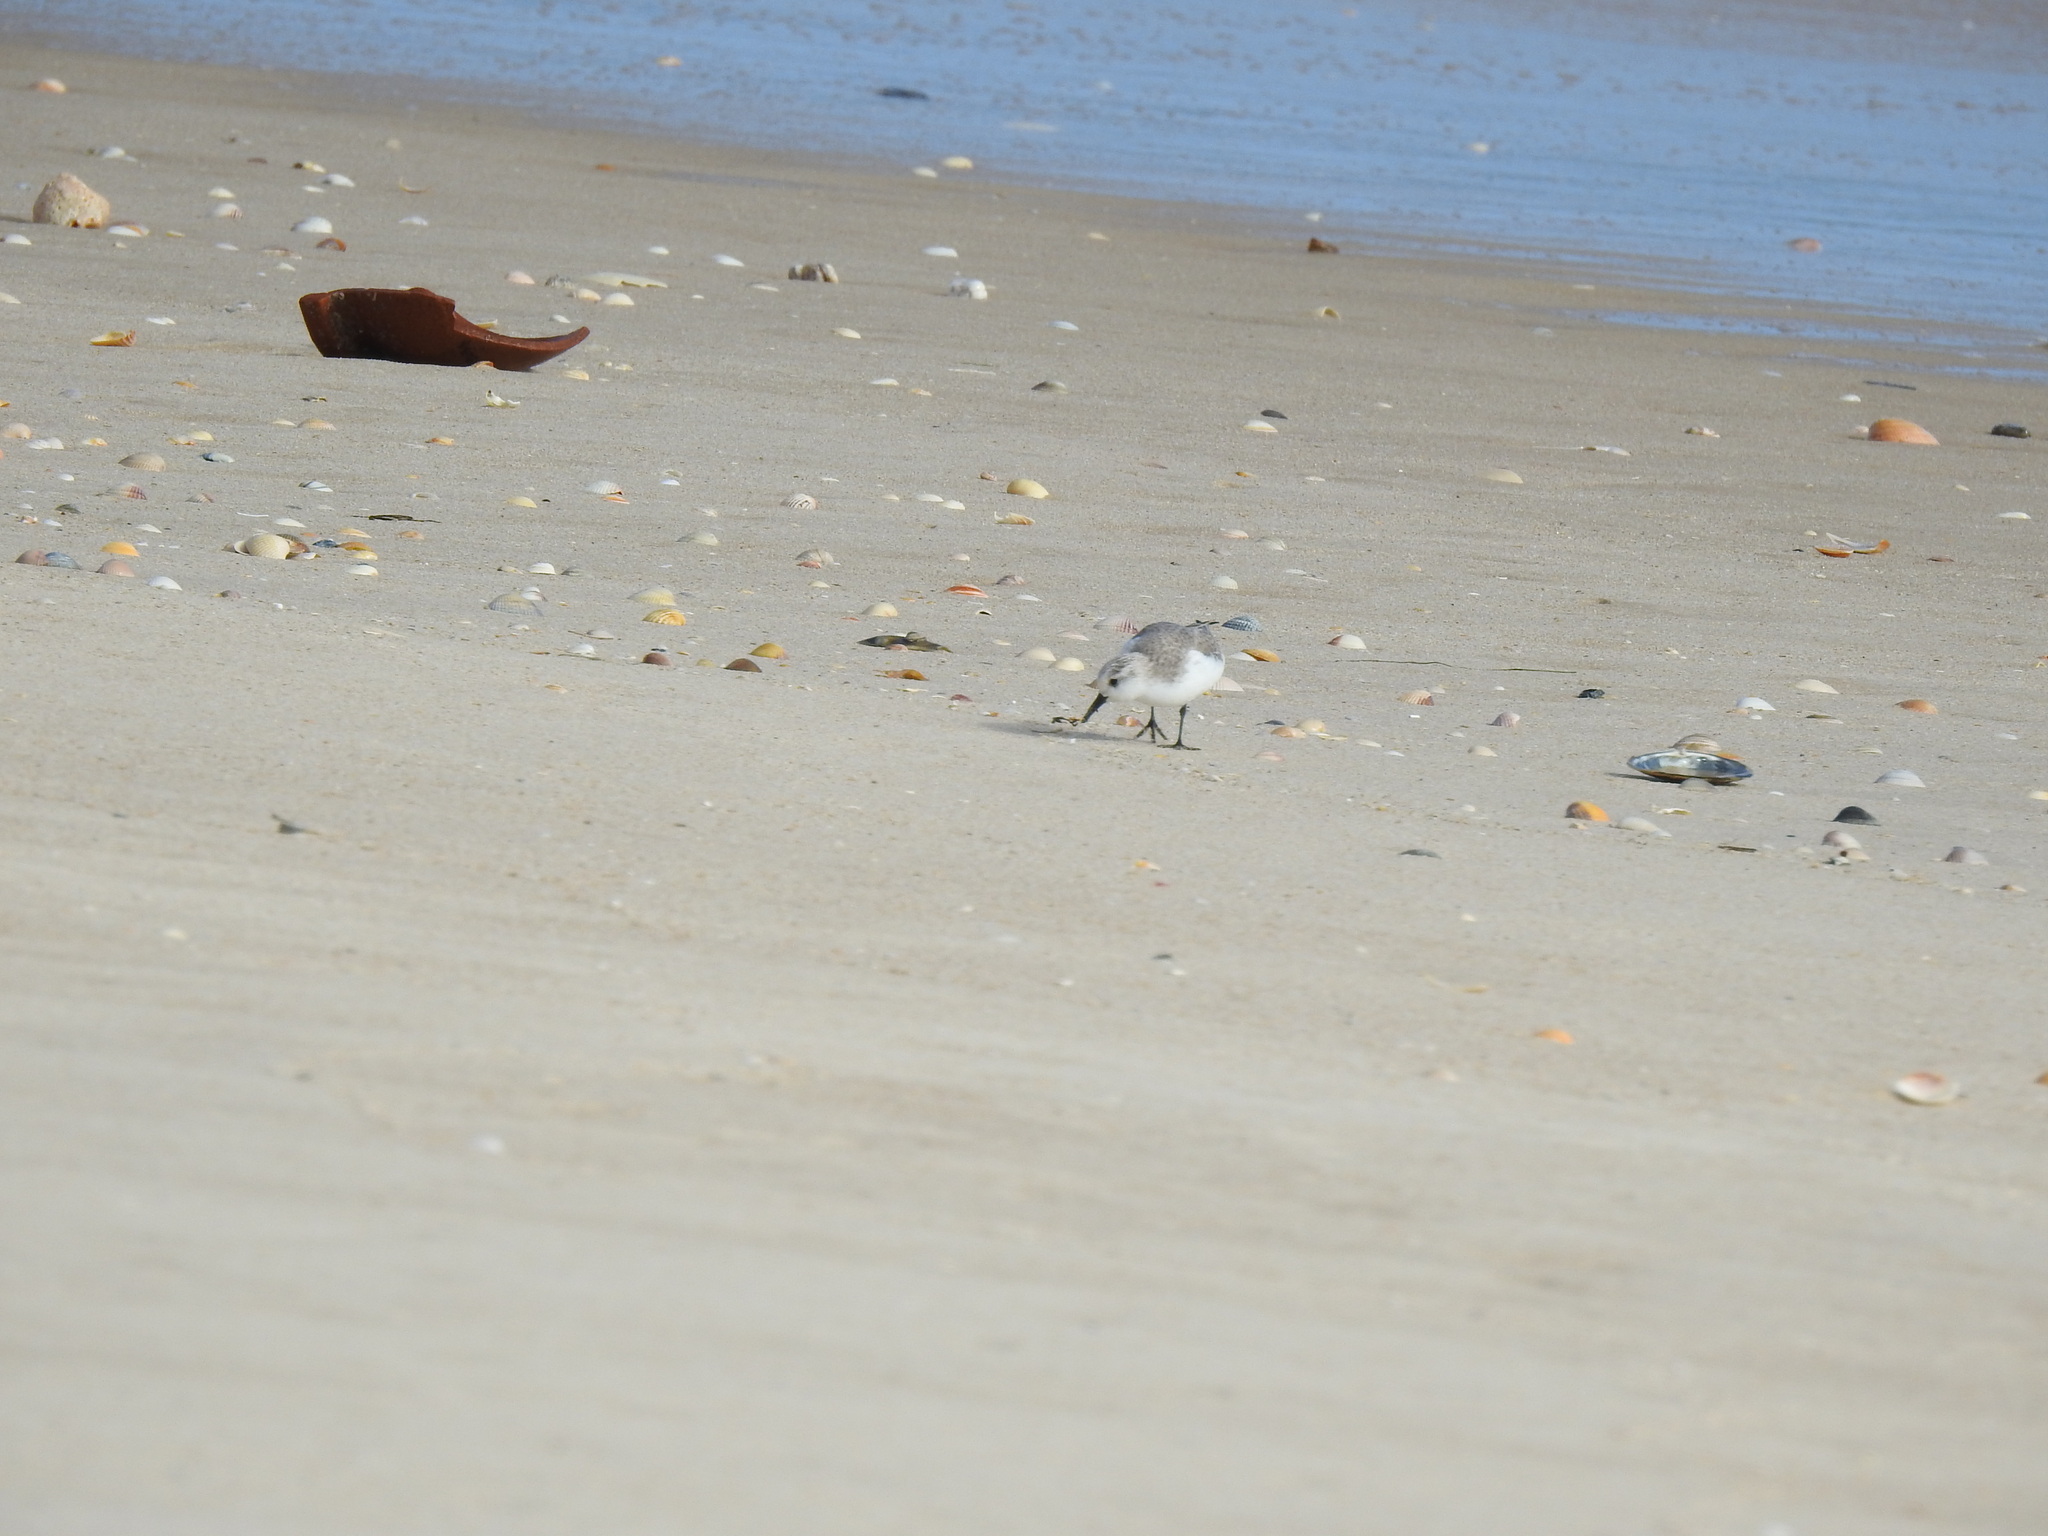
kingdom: Animalia
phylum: Chordata
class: Aves
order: Charadriiformes
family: Scolopacidae
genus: Calidris
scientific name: Calidris alba
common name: Sanderling
